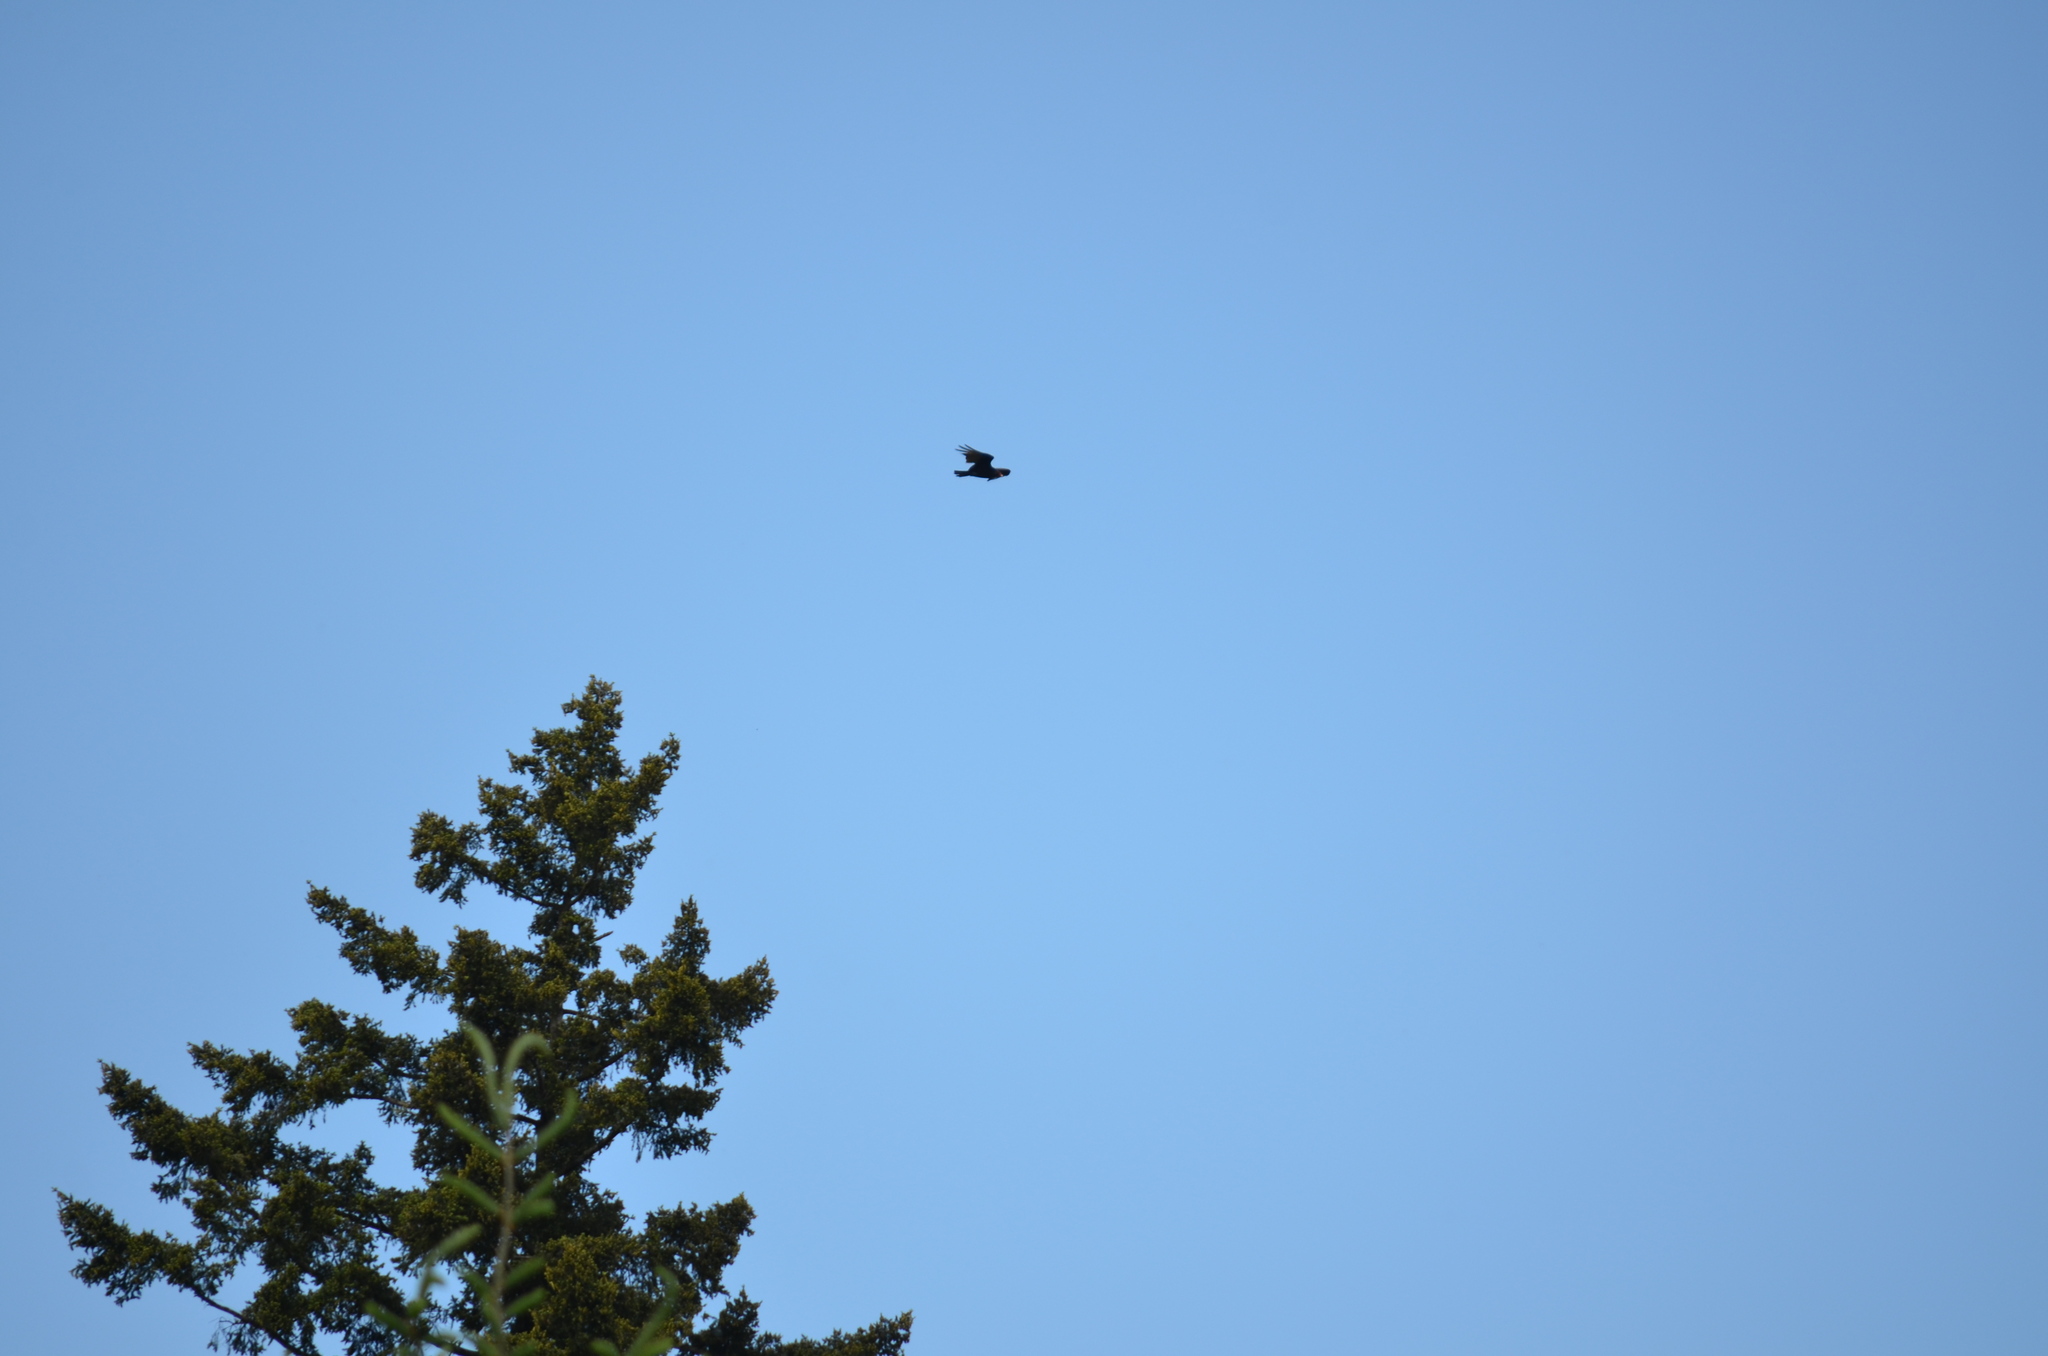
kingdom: Animalia
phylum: Chordata
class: Aves
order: Accipitriformes
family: Cathartidae
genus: Cathartes
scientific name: Cathartes aura
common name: Turkey vulture
